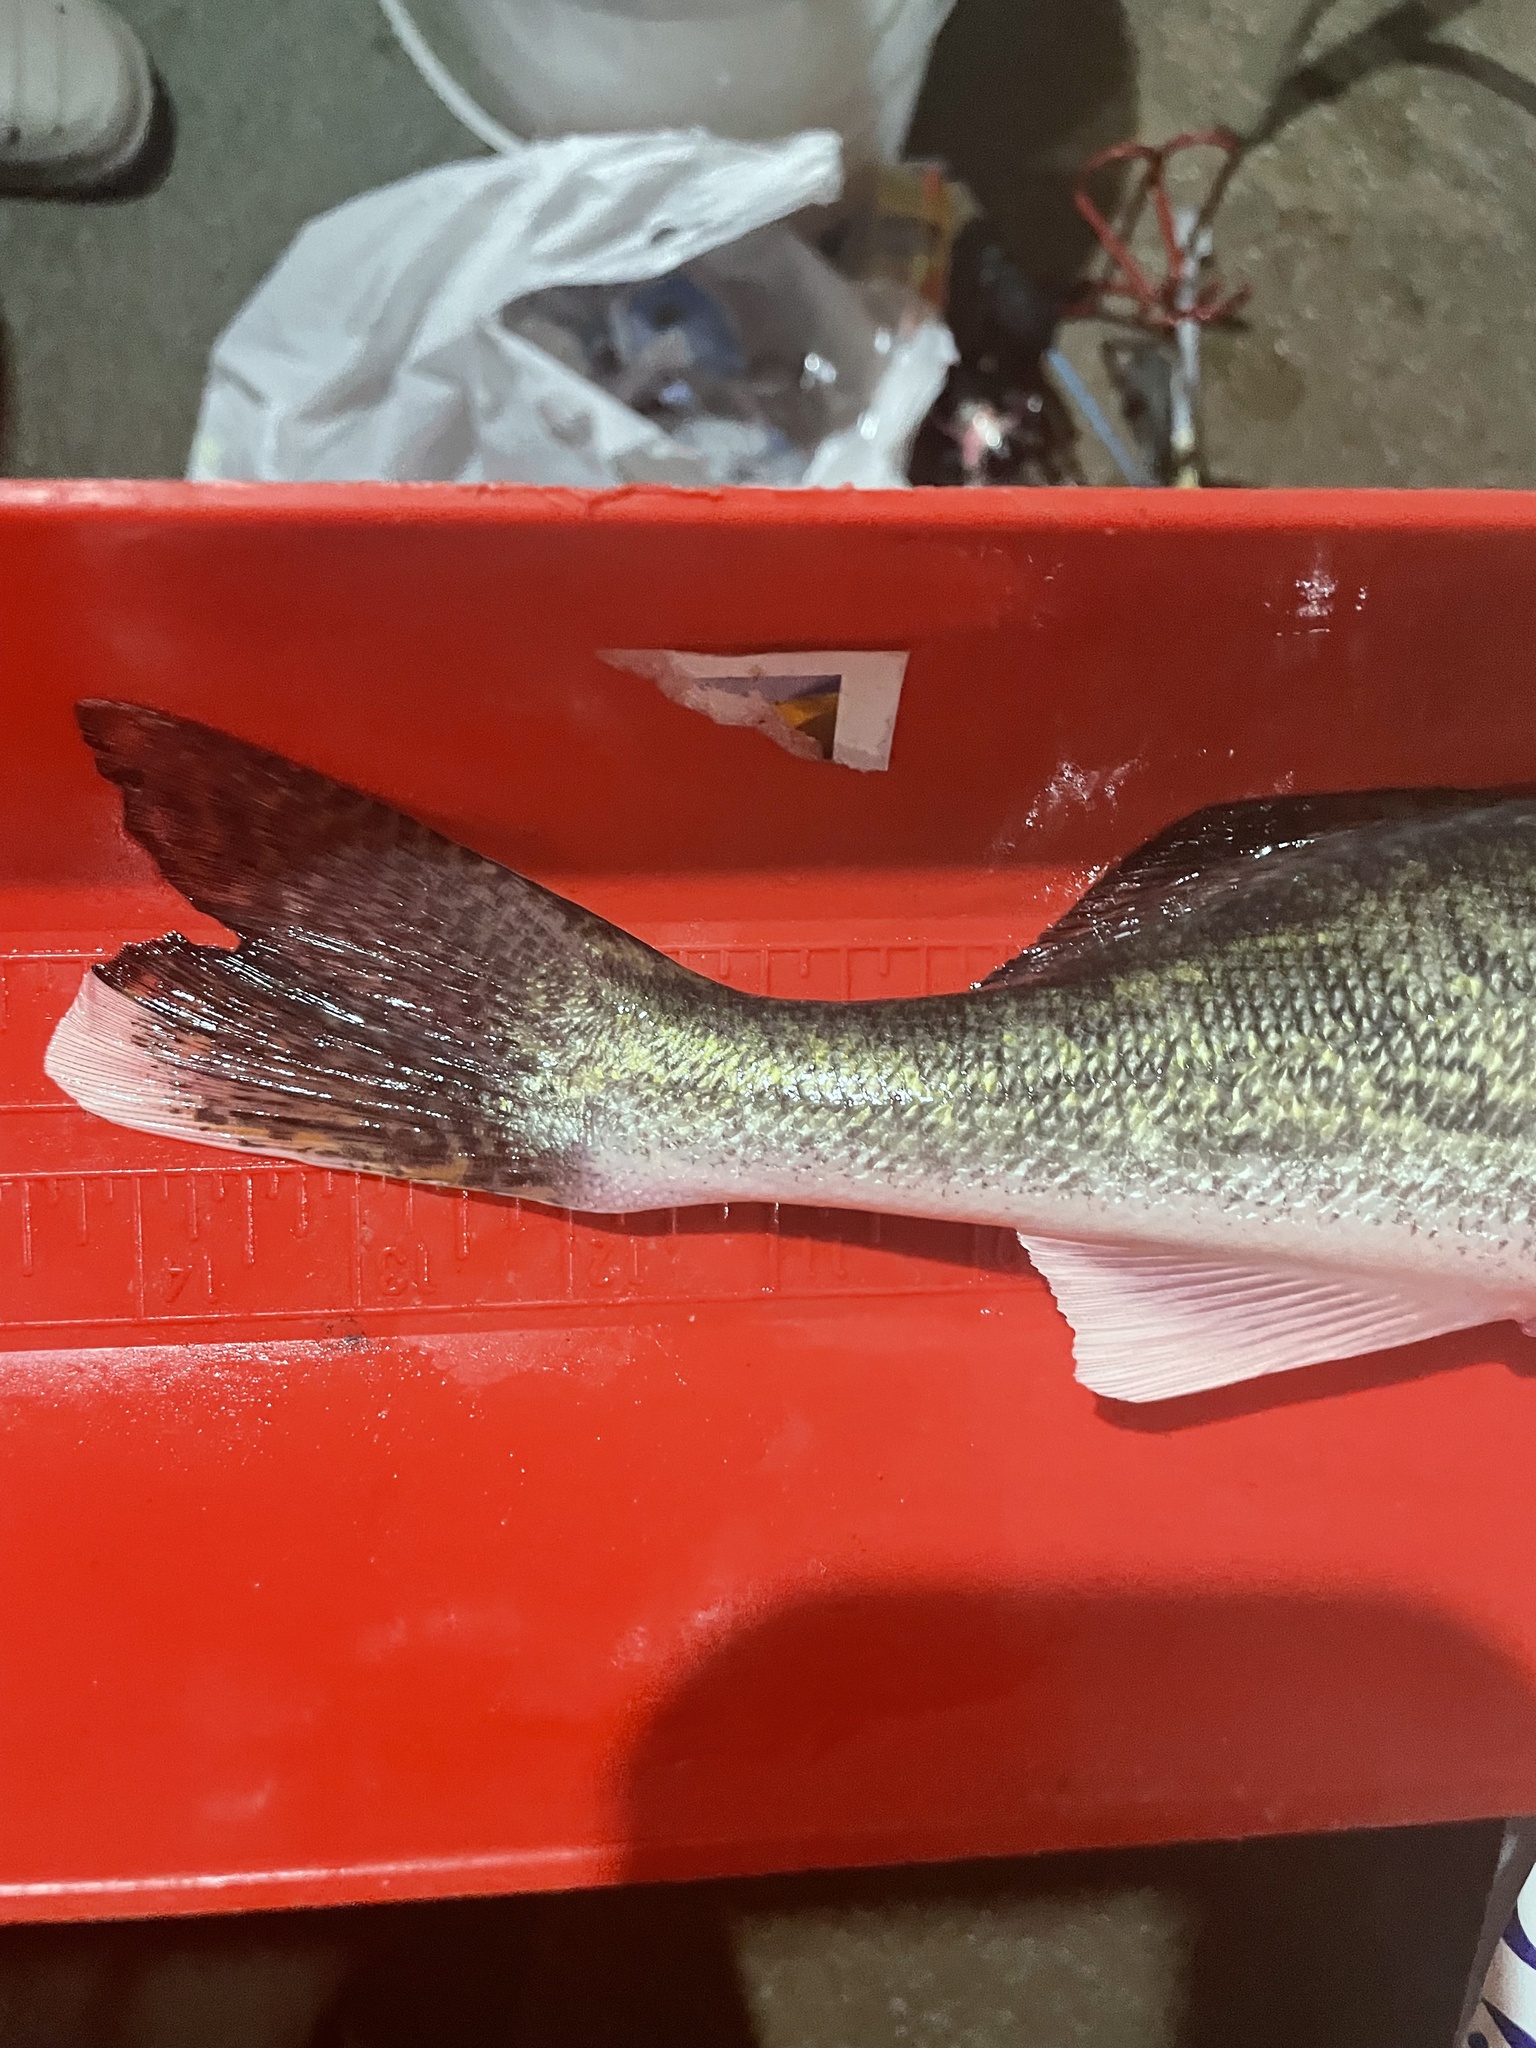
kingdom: Animalia
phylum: Chordata
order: Perciformes
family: Percidae
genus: Sander
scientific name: Sander vitreus
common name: Walleye
